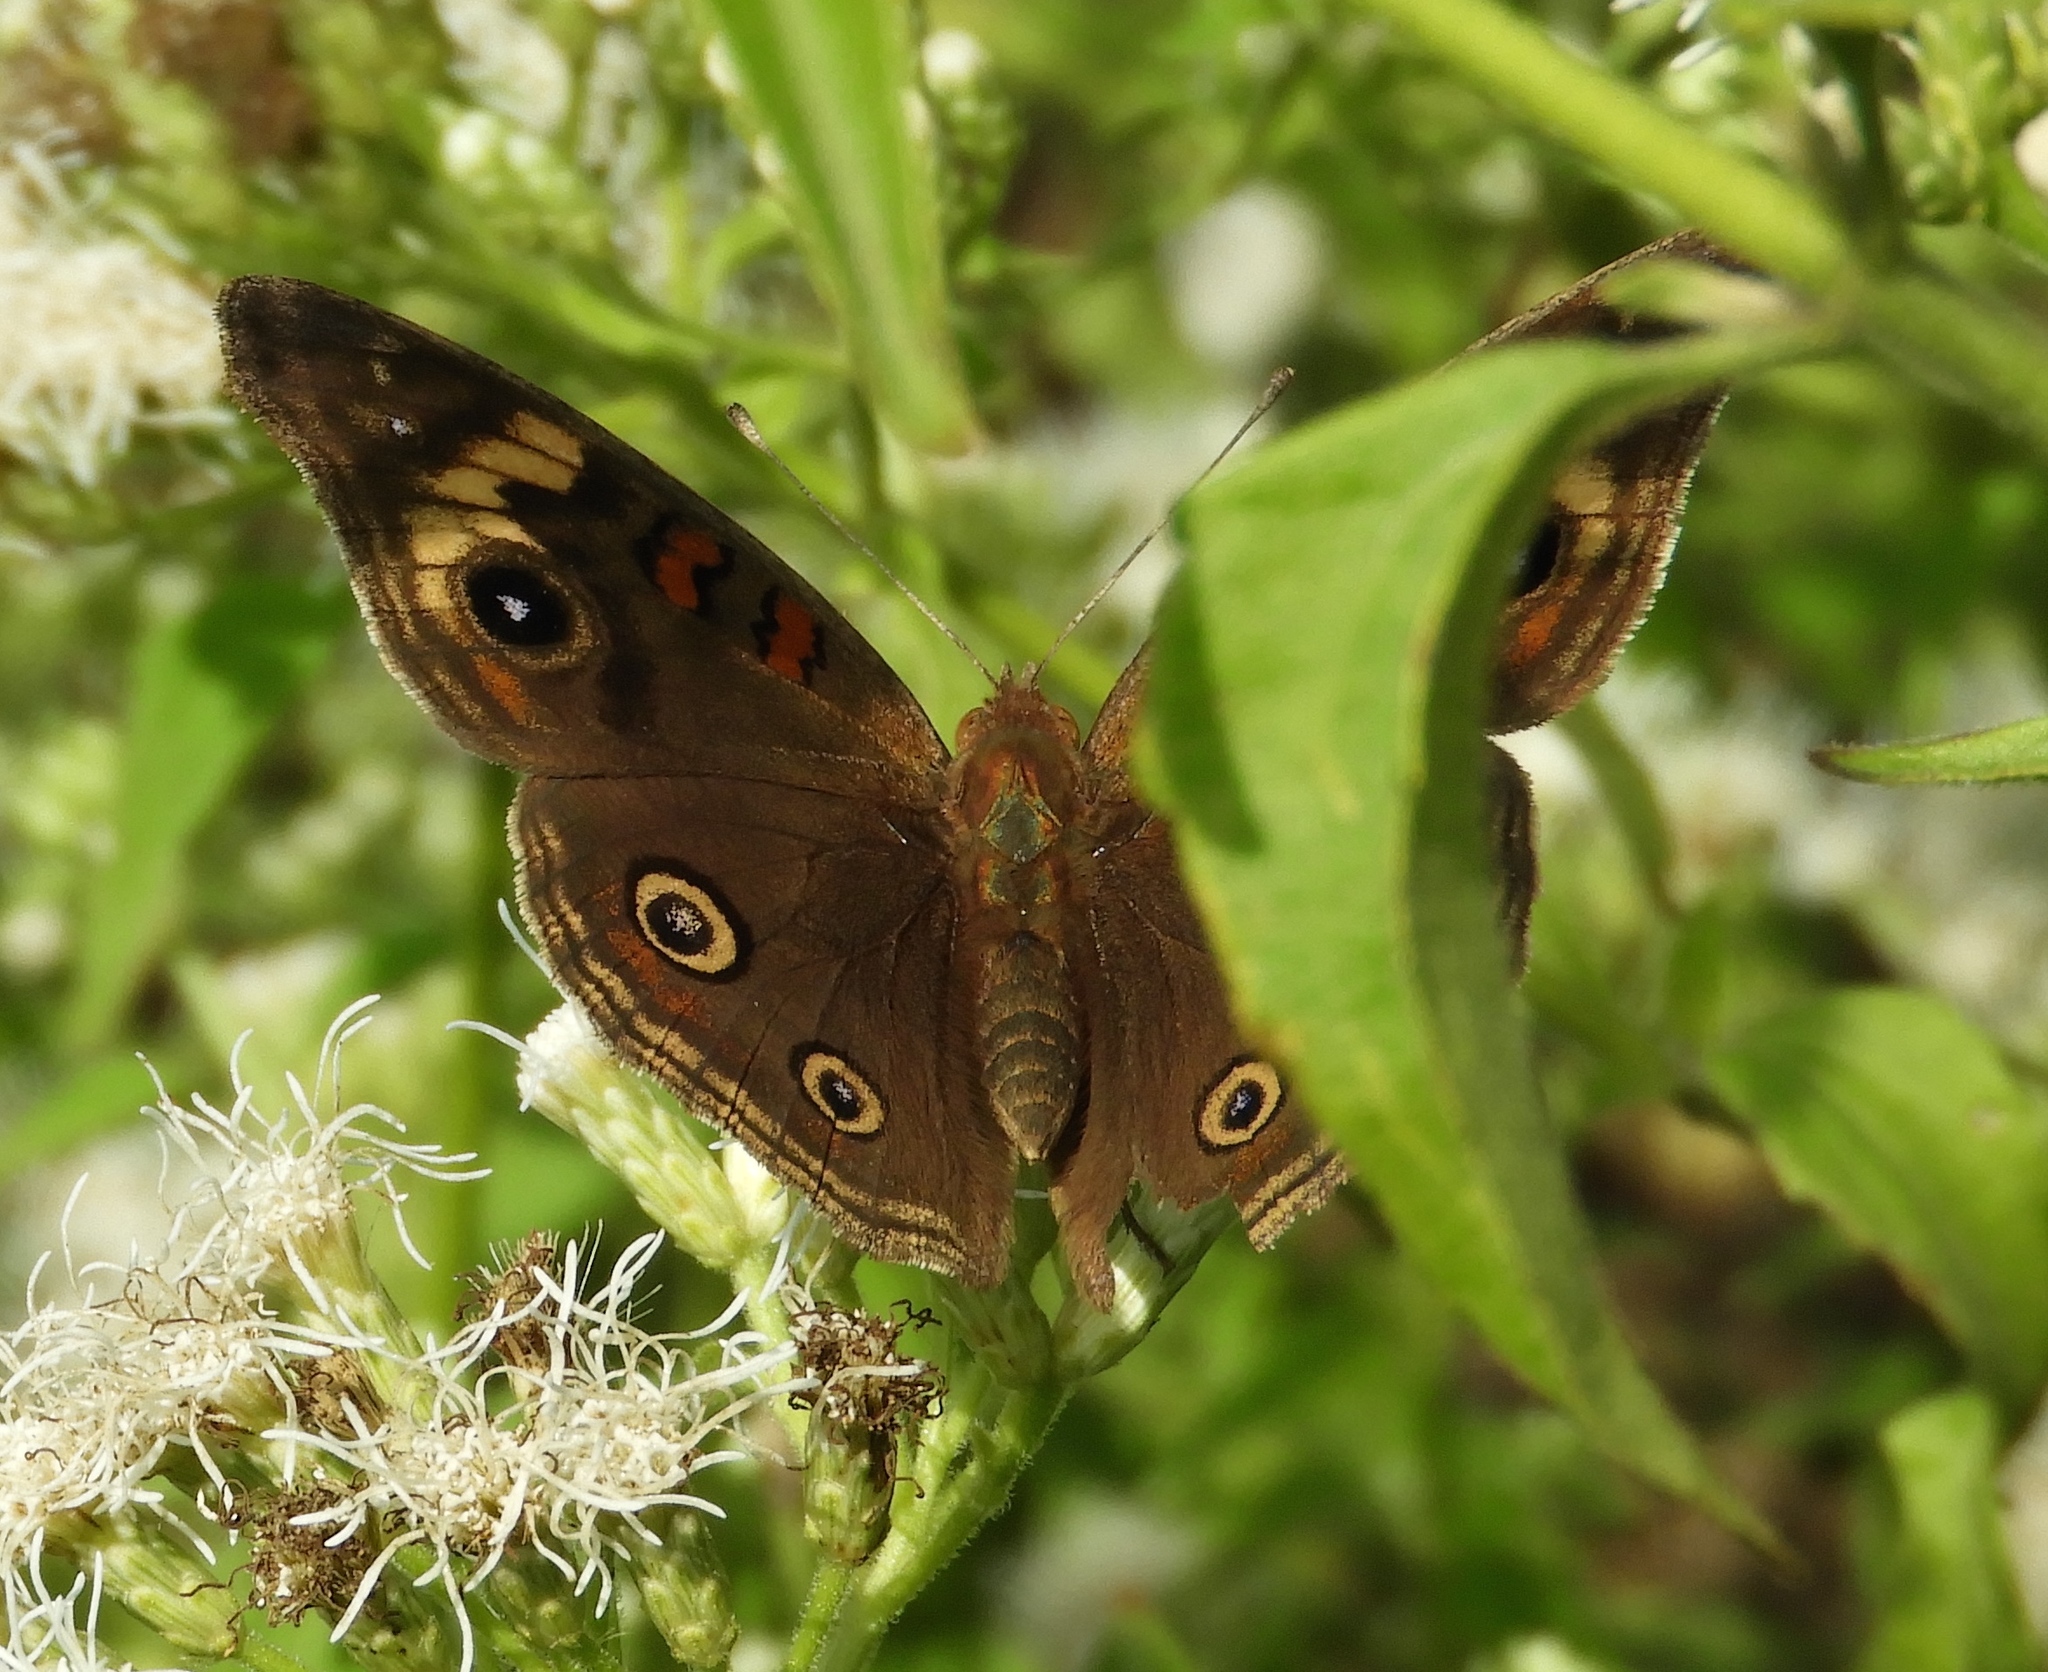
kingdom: Animalia
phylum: Arthropoda
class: Insecta
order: Lepidoptera
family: Nymphalidae
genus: Junonia
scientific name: Junonia
